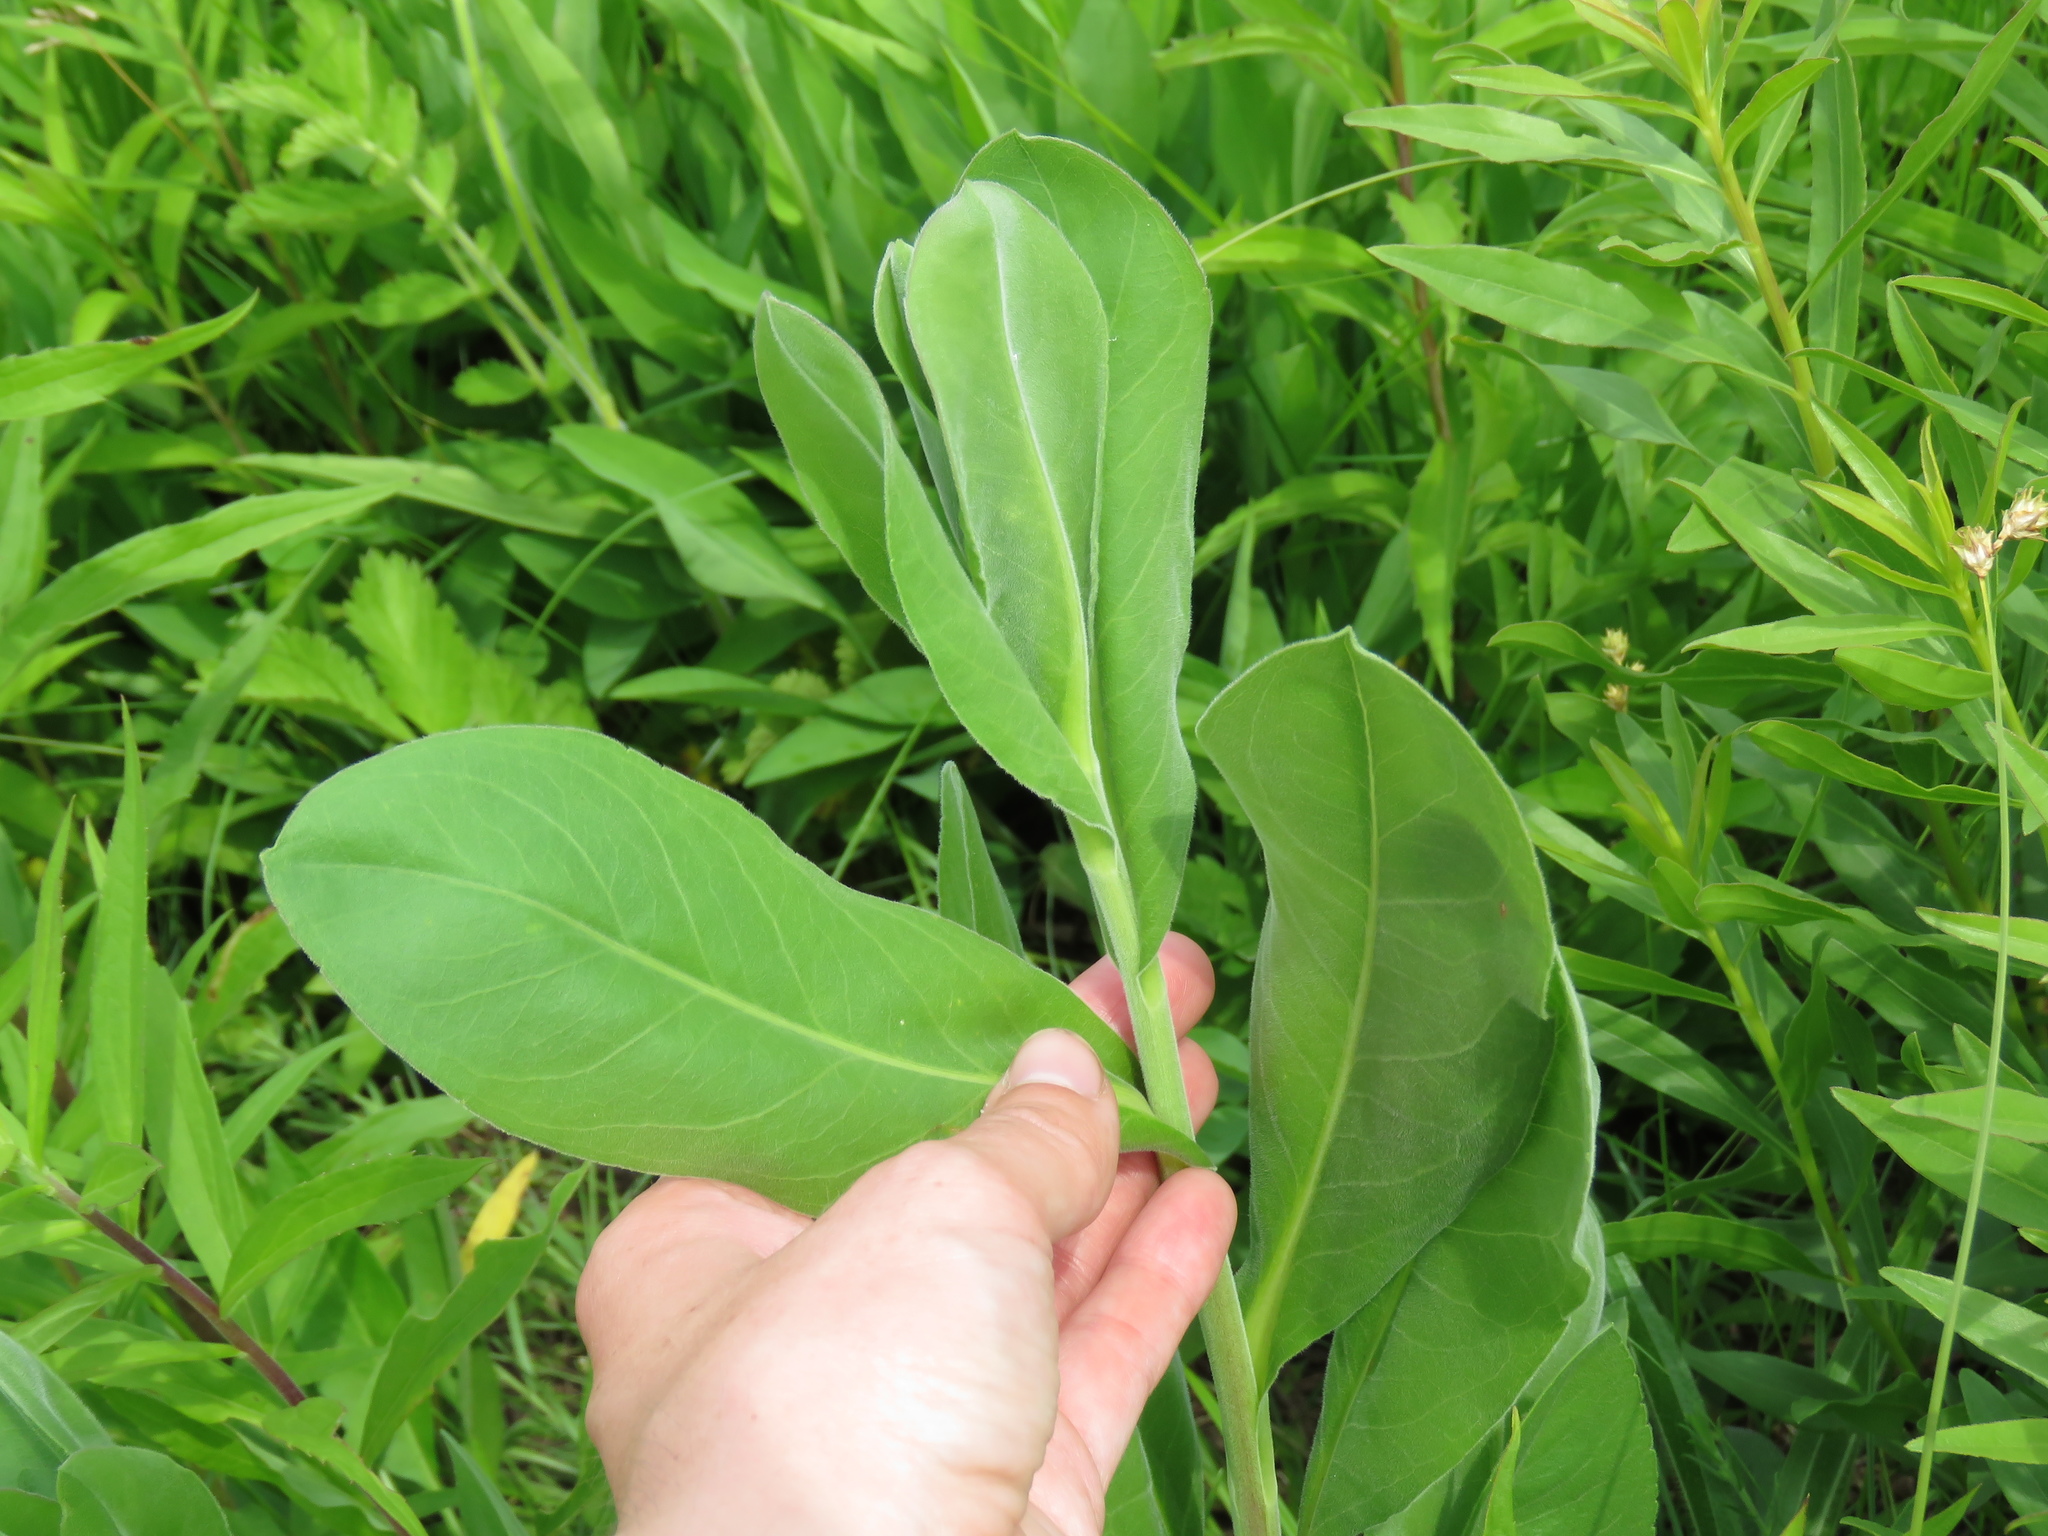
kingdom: Plantae
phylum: Tracheophyta
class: Magnoliopsida
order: Asterales
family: Asteraceae
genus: Solidago
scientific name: Solidago rigida
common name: Rigid goldenrod
